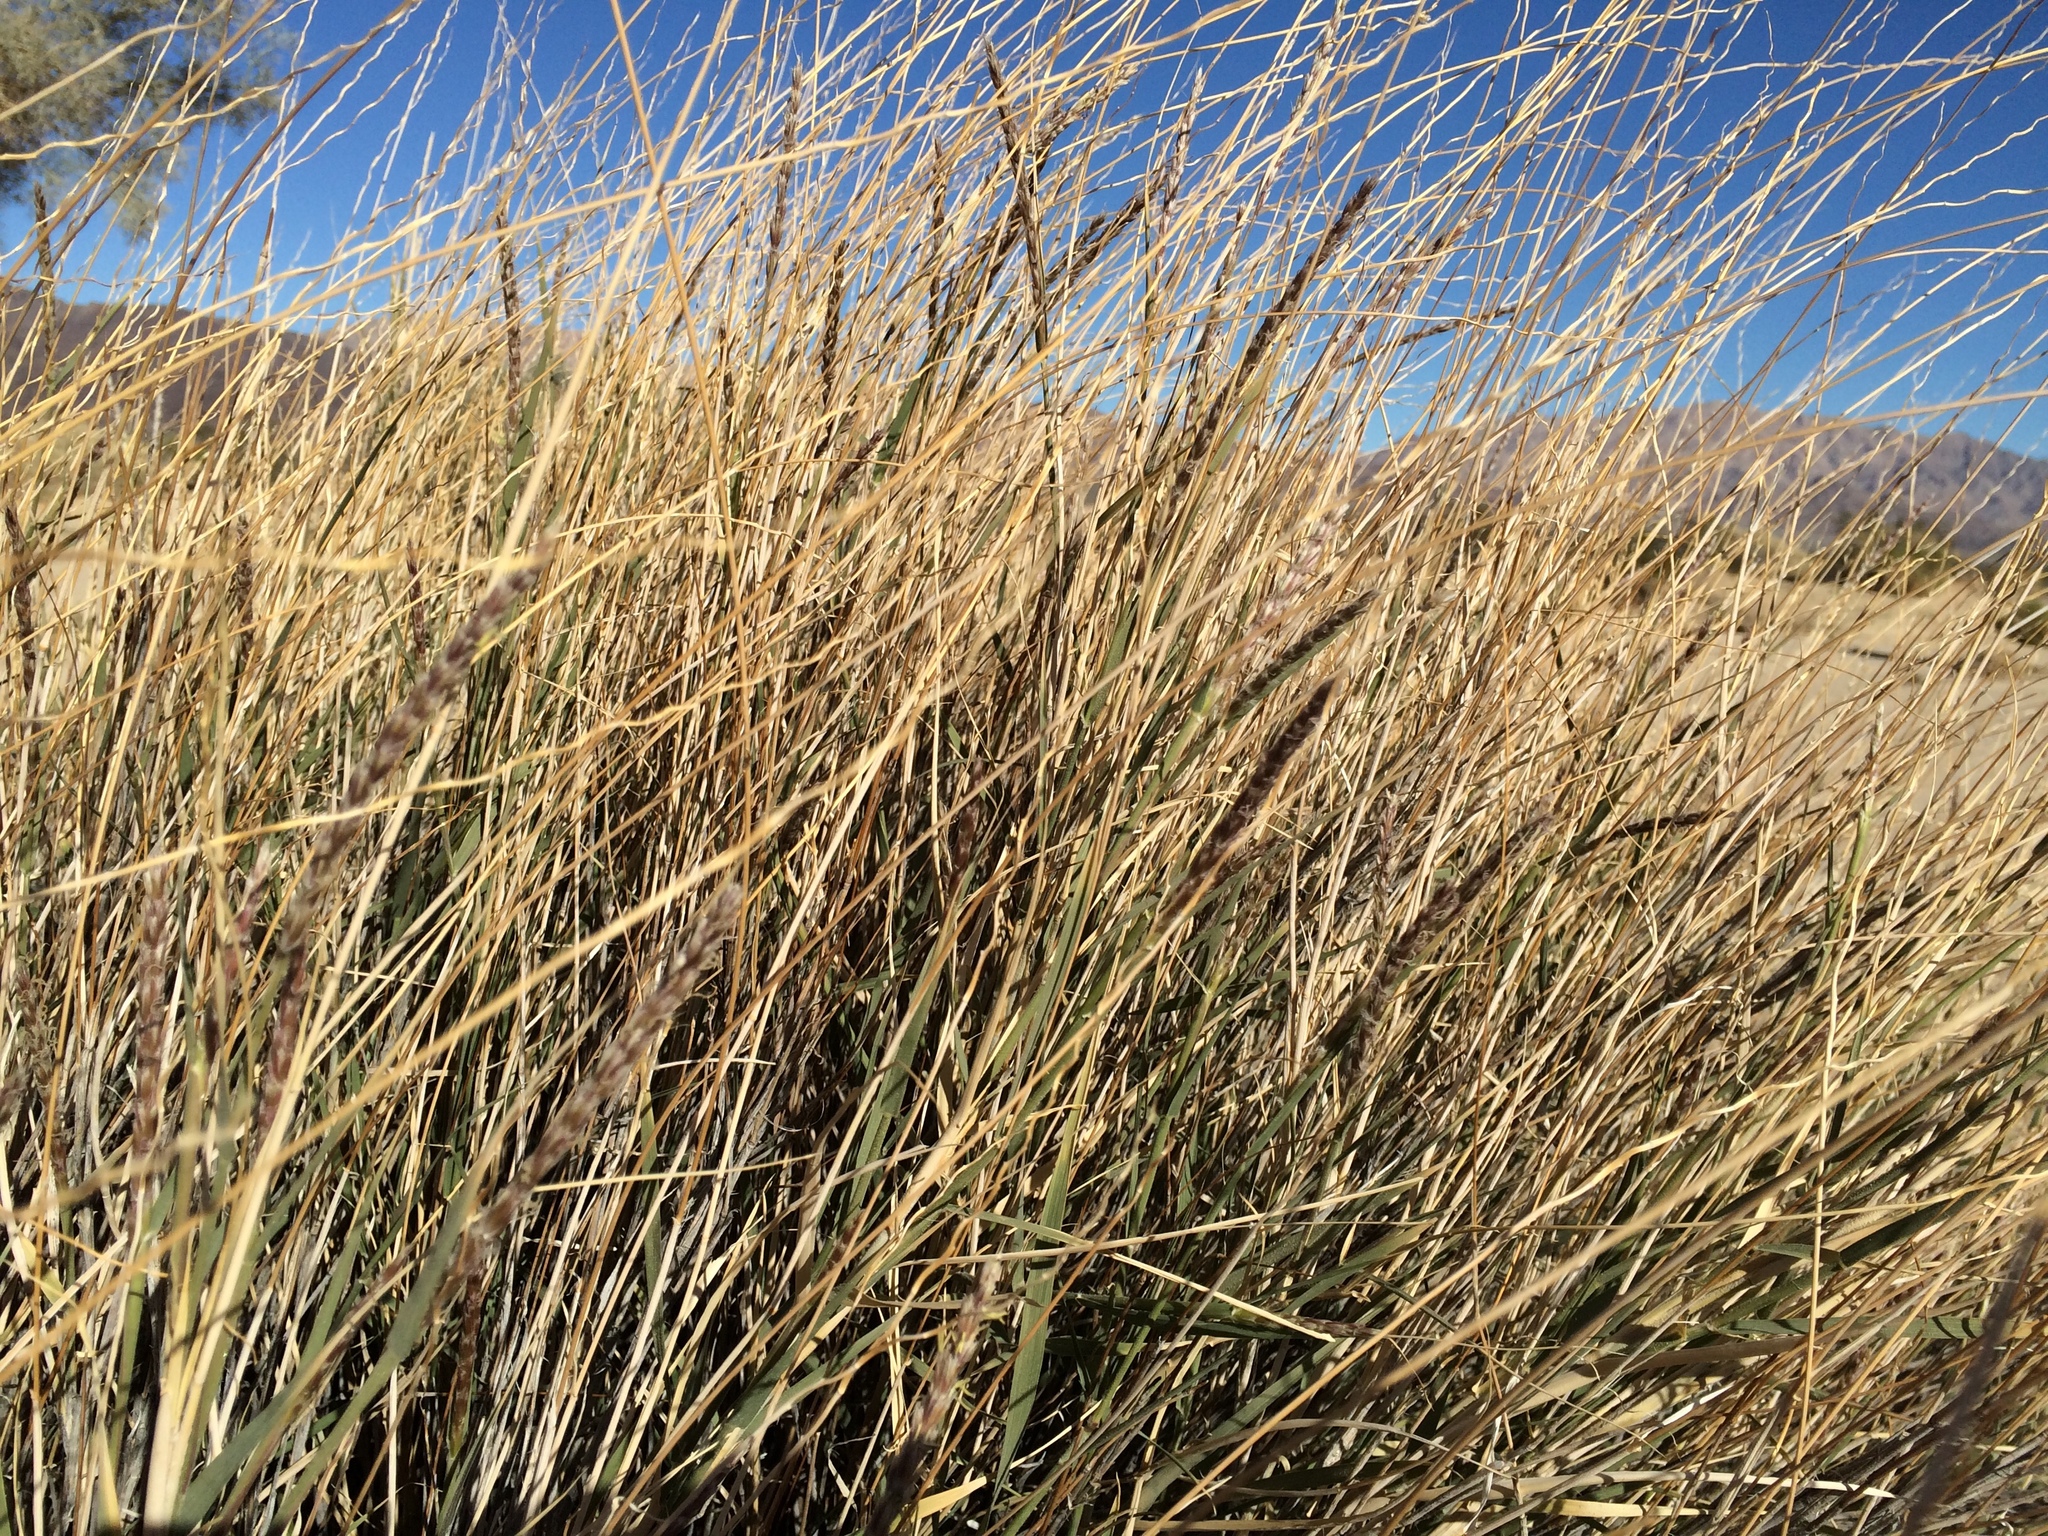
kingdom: Plantae
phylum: Tracheophyta
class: Liliopsida
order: Poales
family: Poaceae
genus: Hilaria
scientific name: Hilaria rigida
